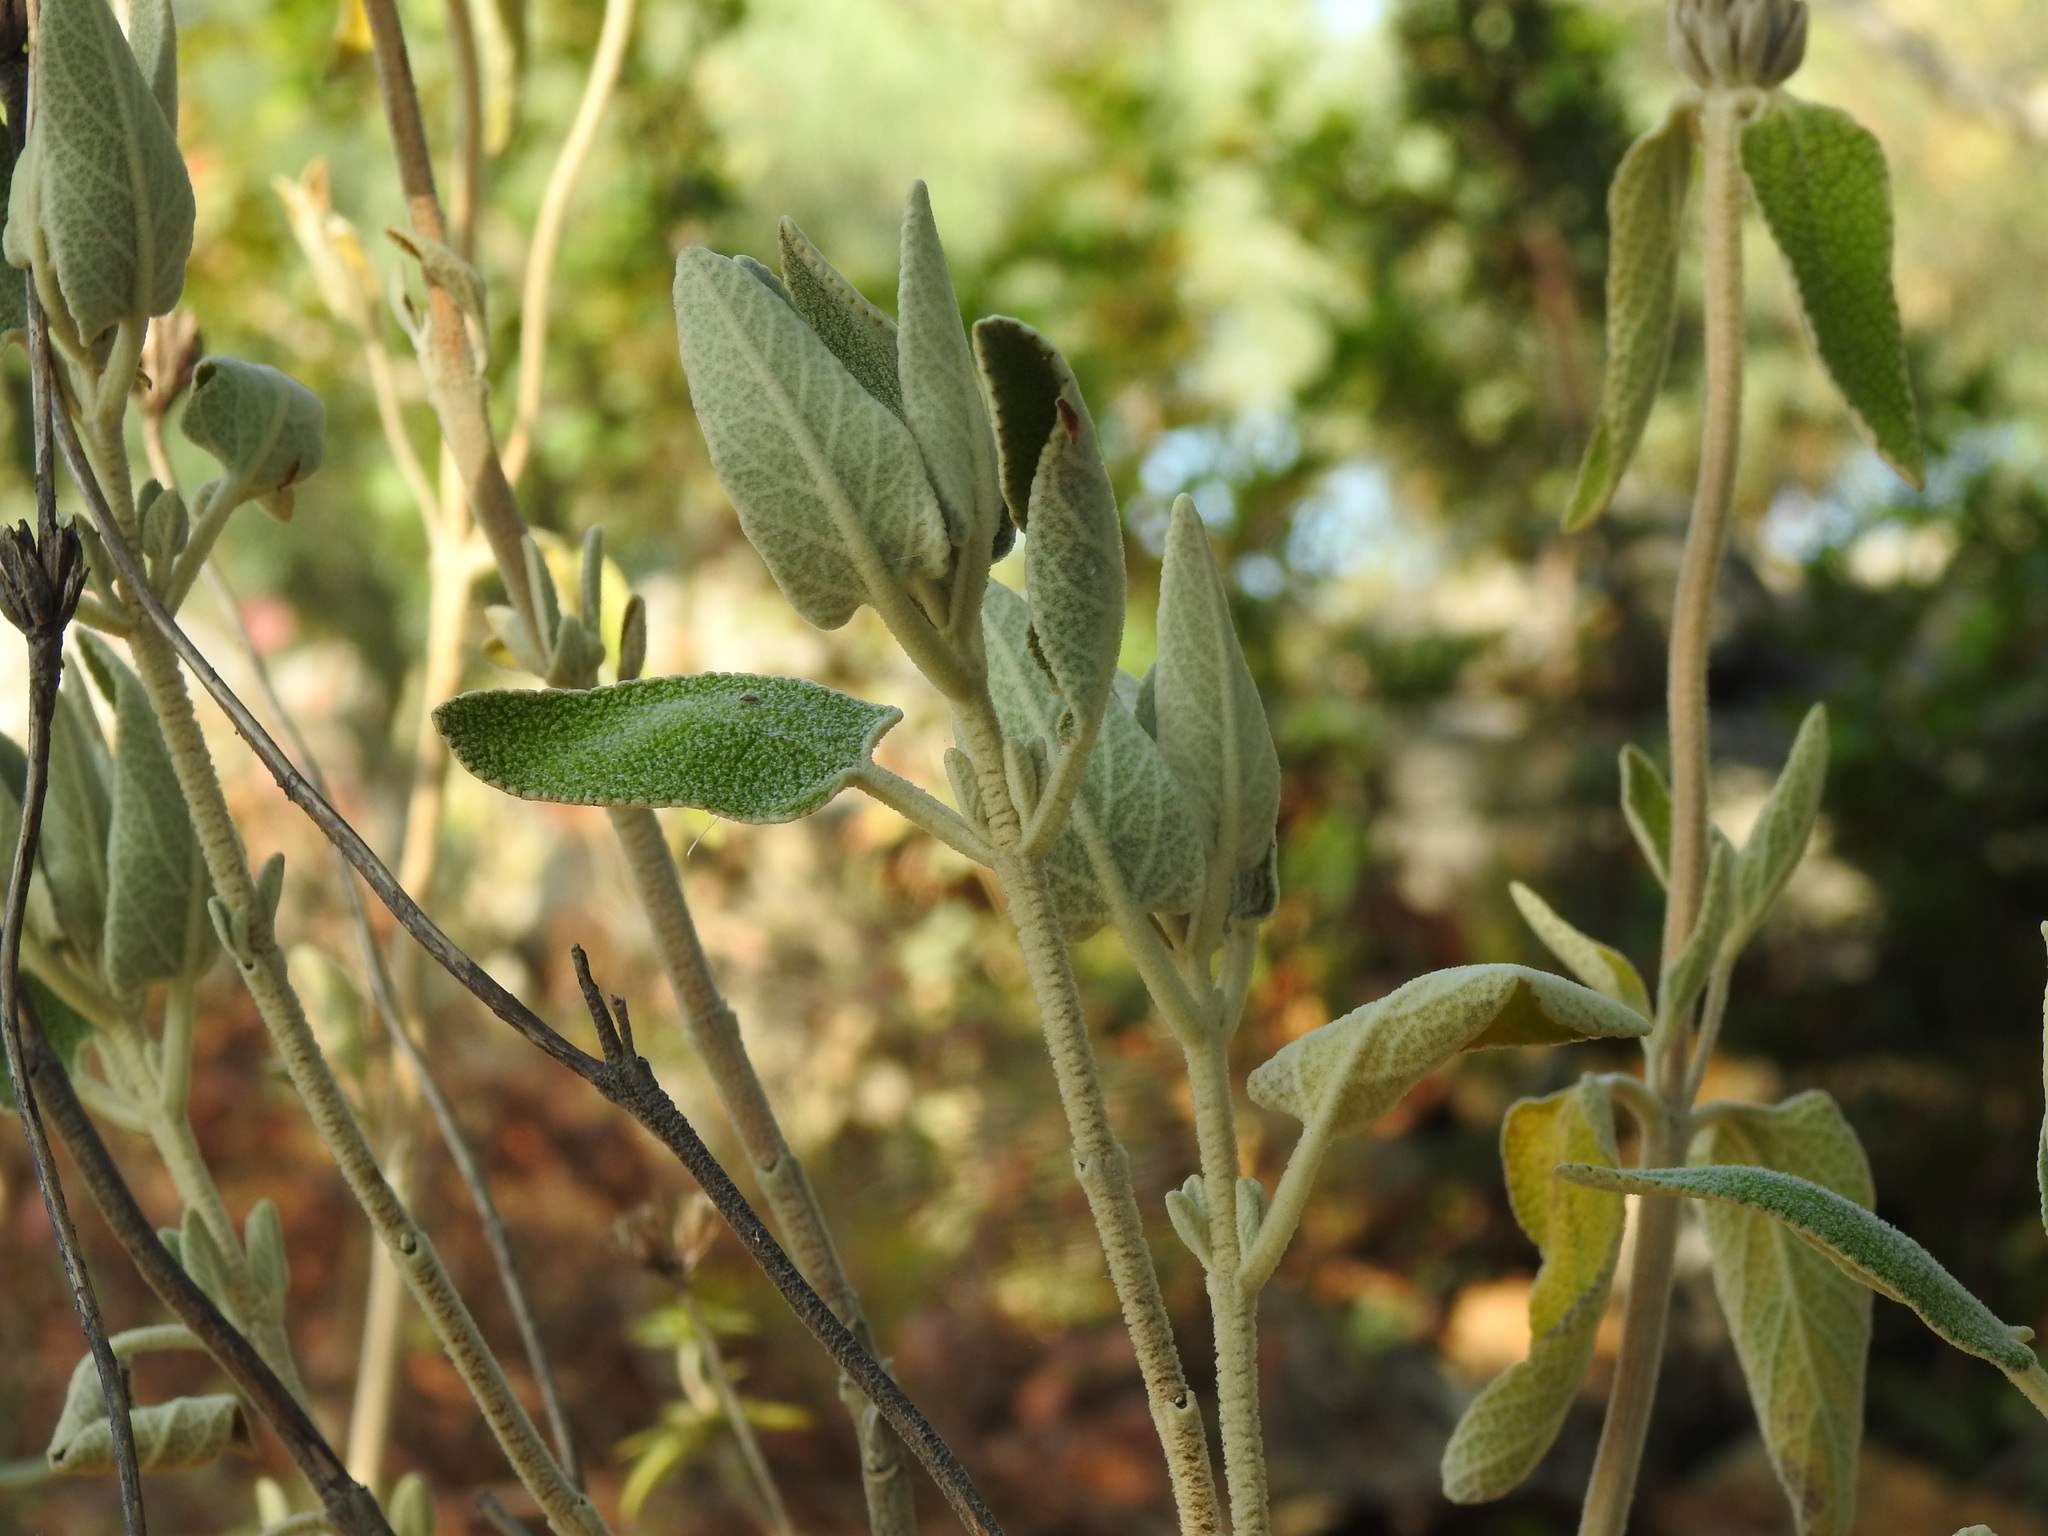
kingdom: Plantae
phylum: Tracheophyta
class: Magnoliopsida
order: Lamiales
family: Lamiaceae
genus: Phlomis
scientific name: Phlomis purpurea
